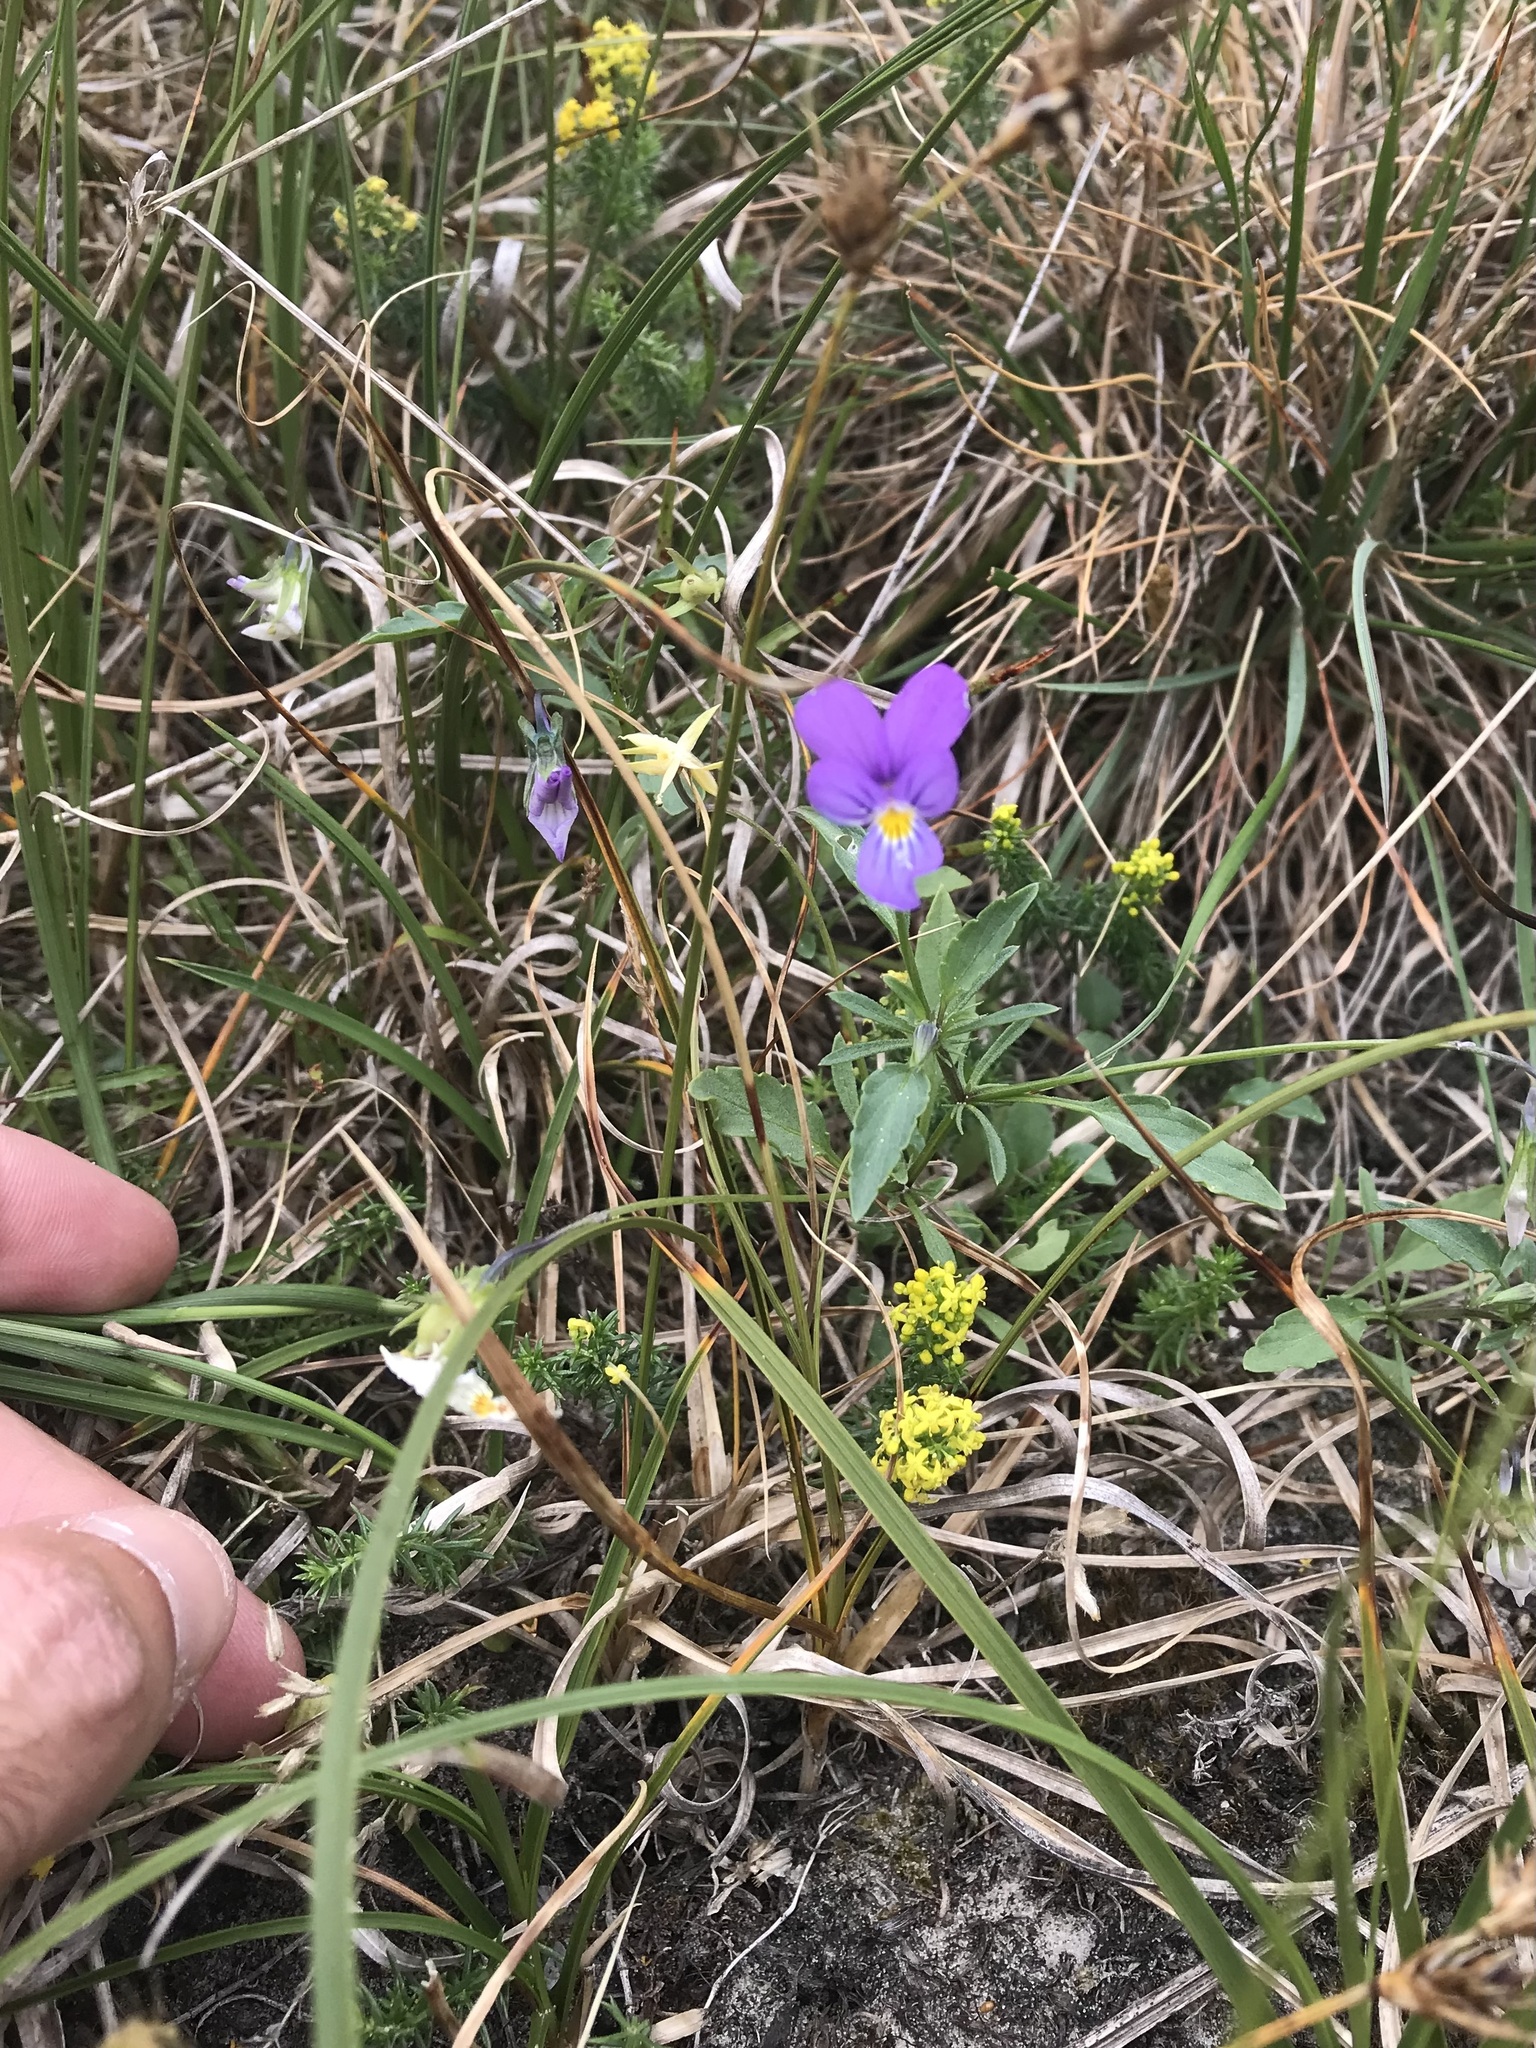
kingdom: Plantae
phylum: Tracheophyta
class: Magnoliopsida
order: Malpighiales
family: Violaceae
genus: Viola
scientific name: Viola tricolor
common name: Pansy
